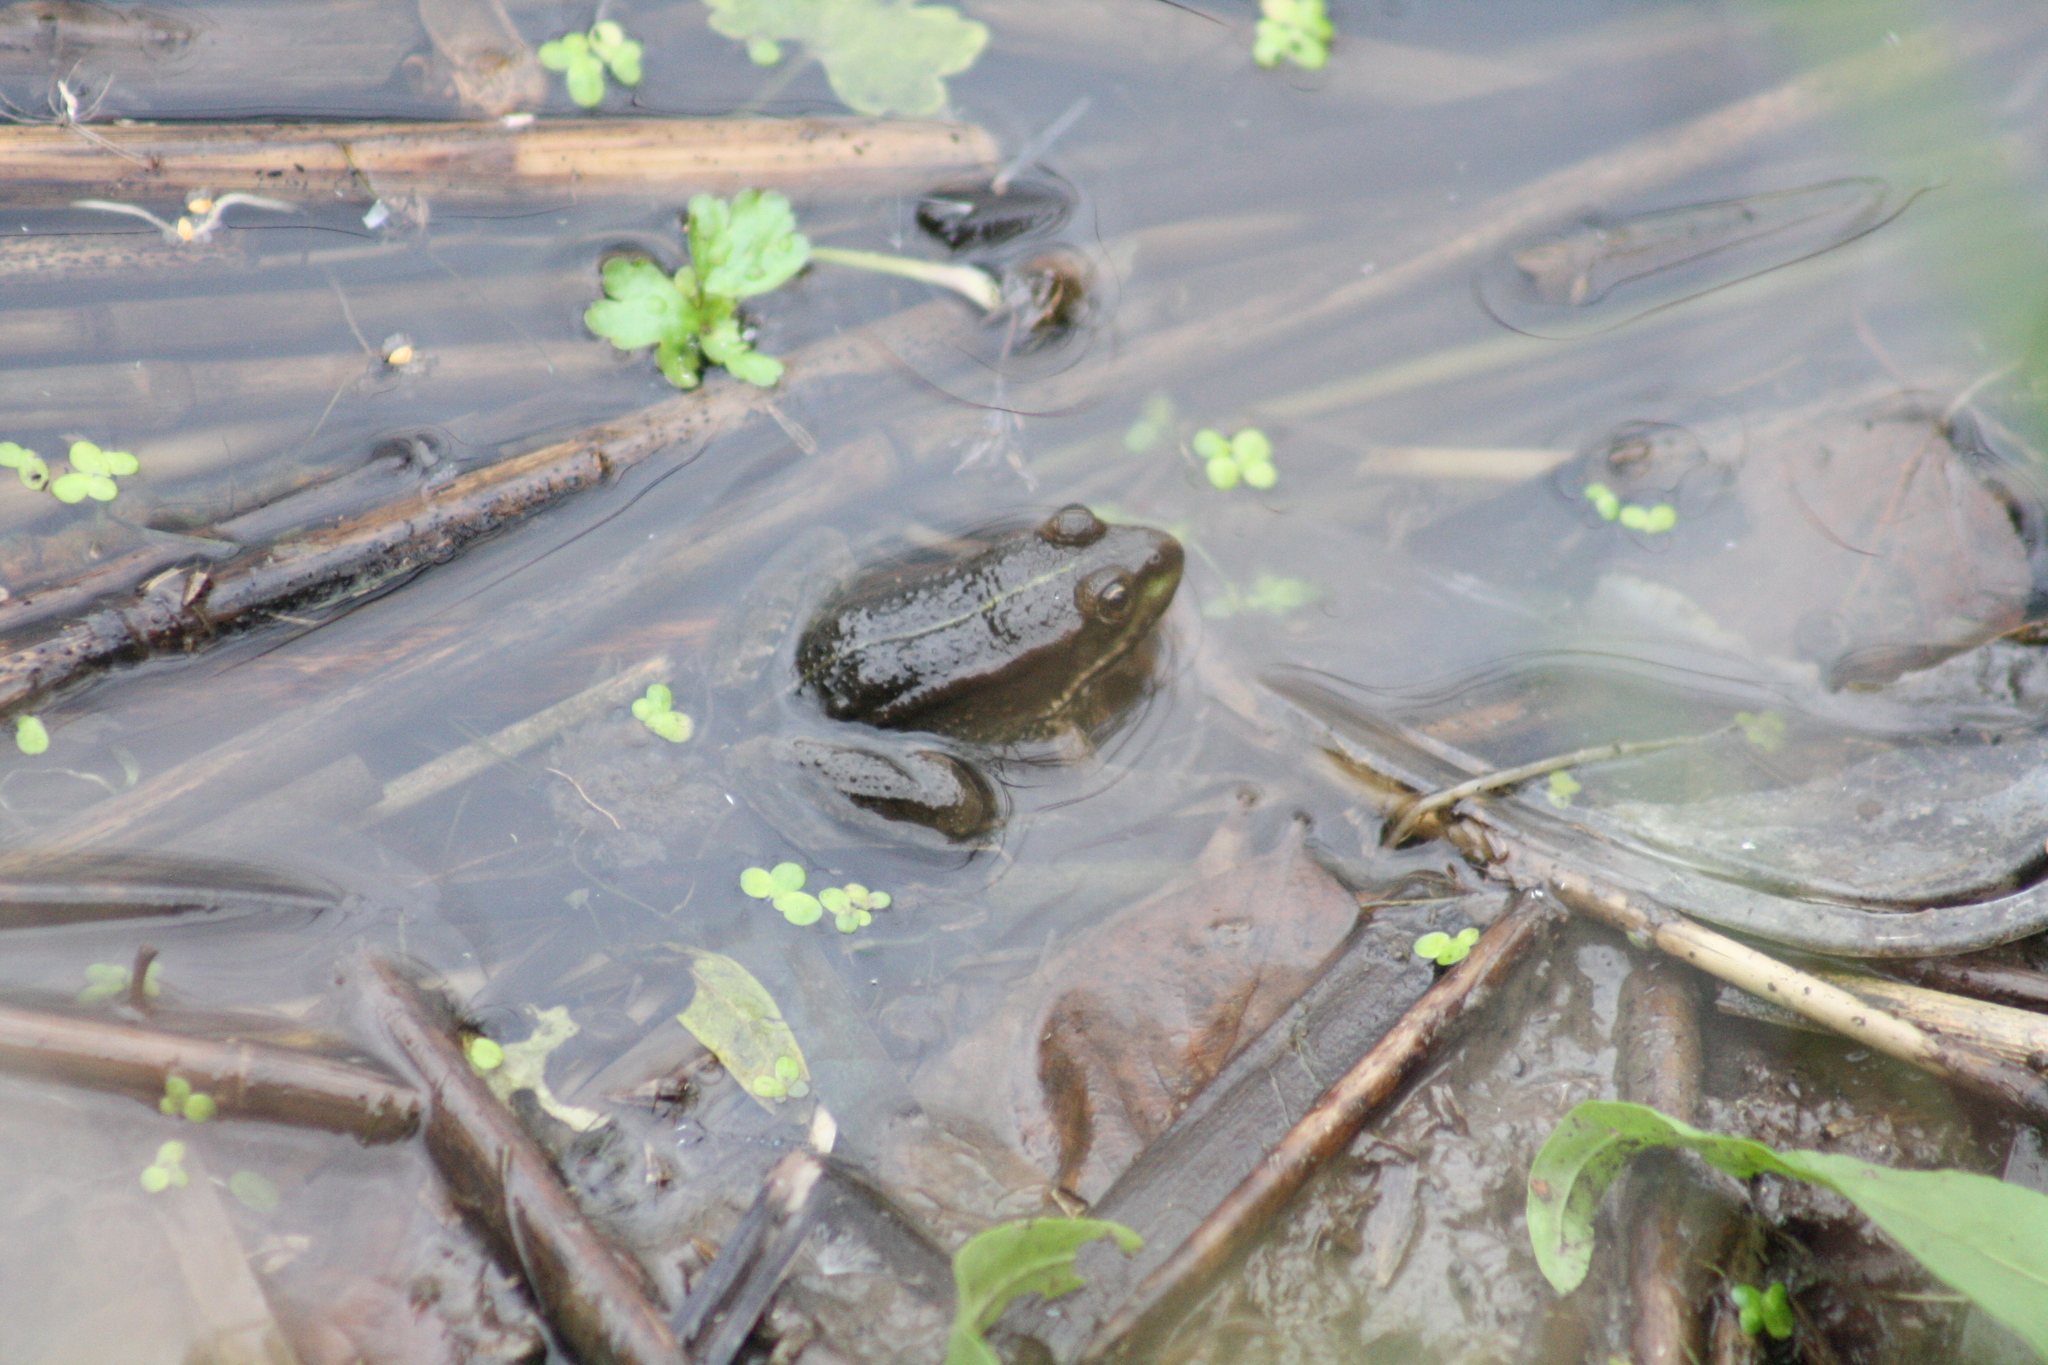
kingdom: Animalia
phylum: Chordata
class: Amphibia
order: Anura
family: Ranidae
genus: Pelophylax
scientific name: Pelophylax ridibundus
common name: Marsh frog
